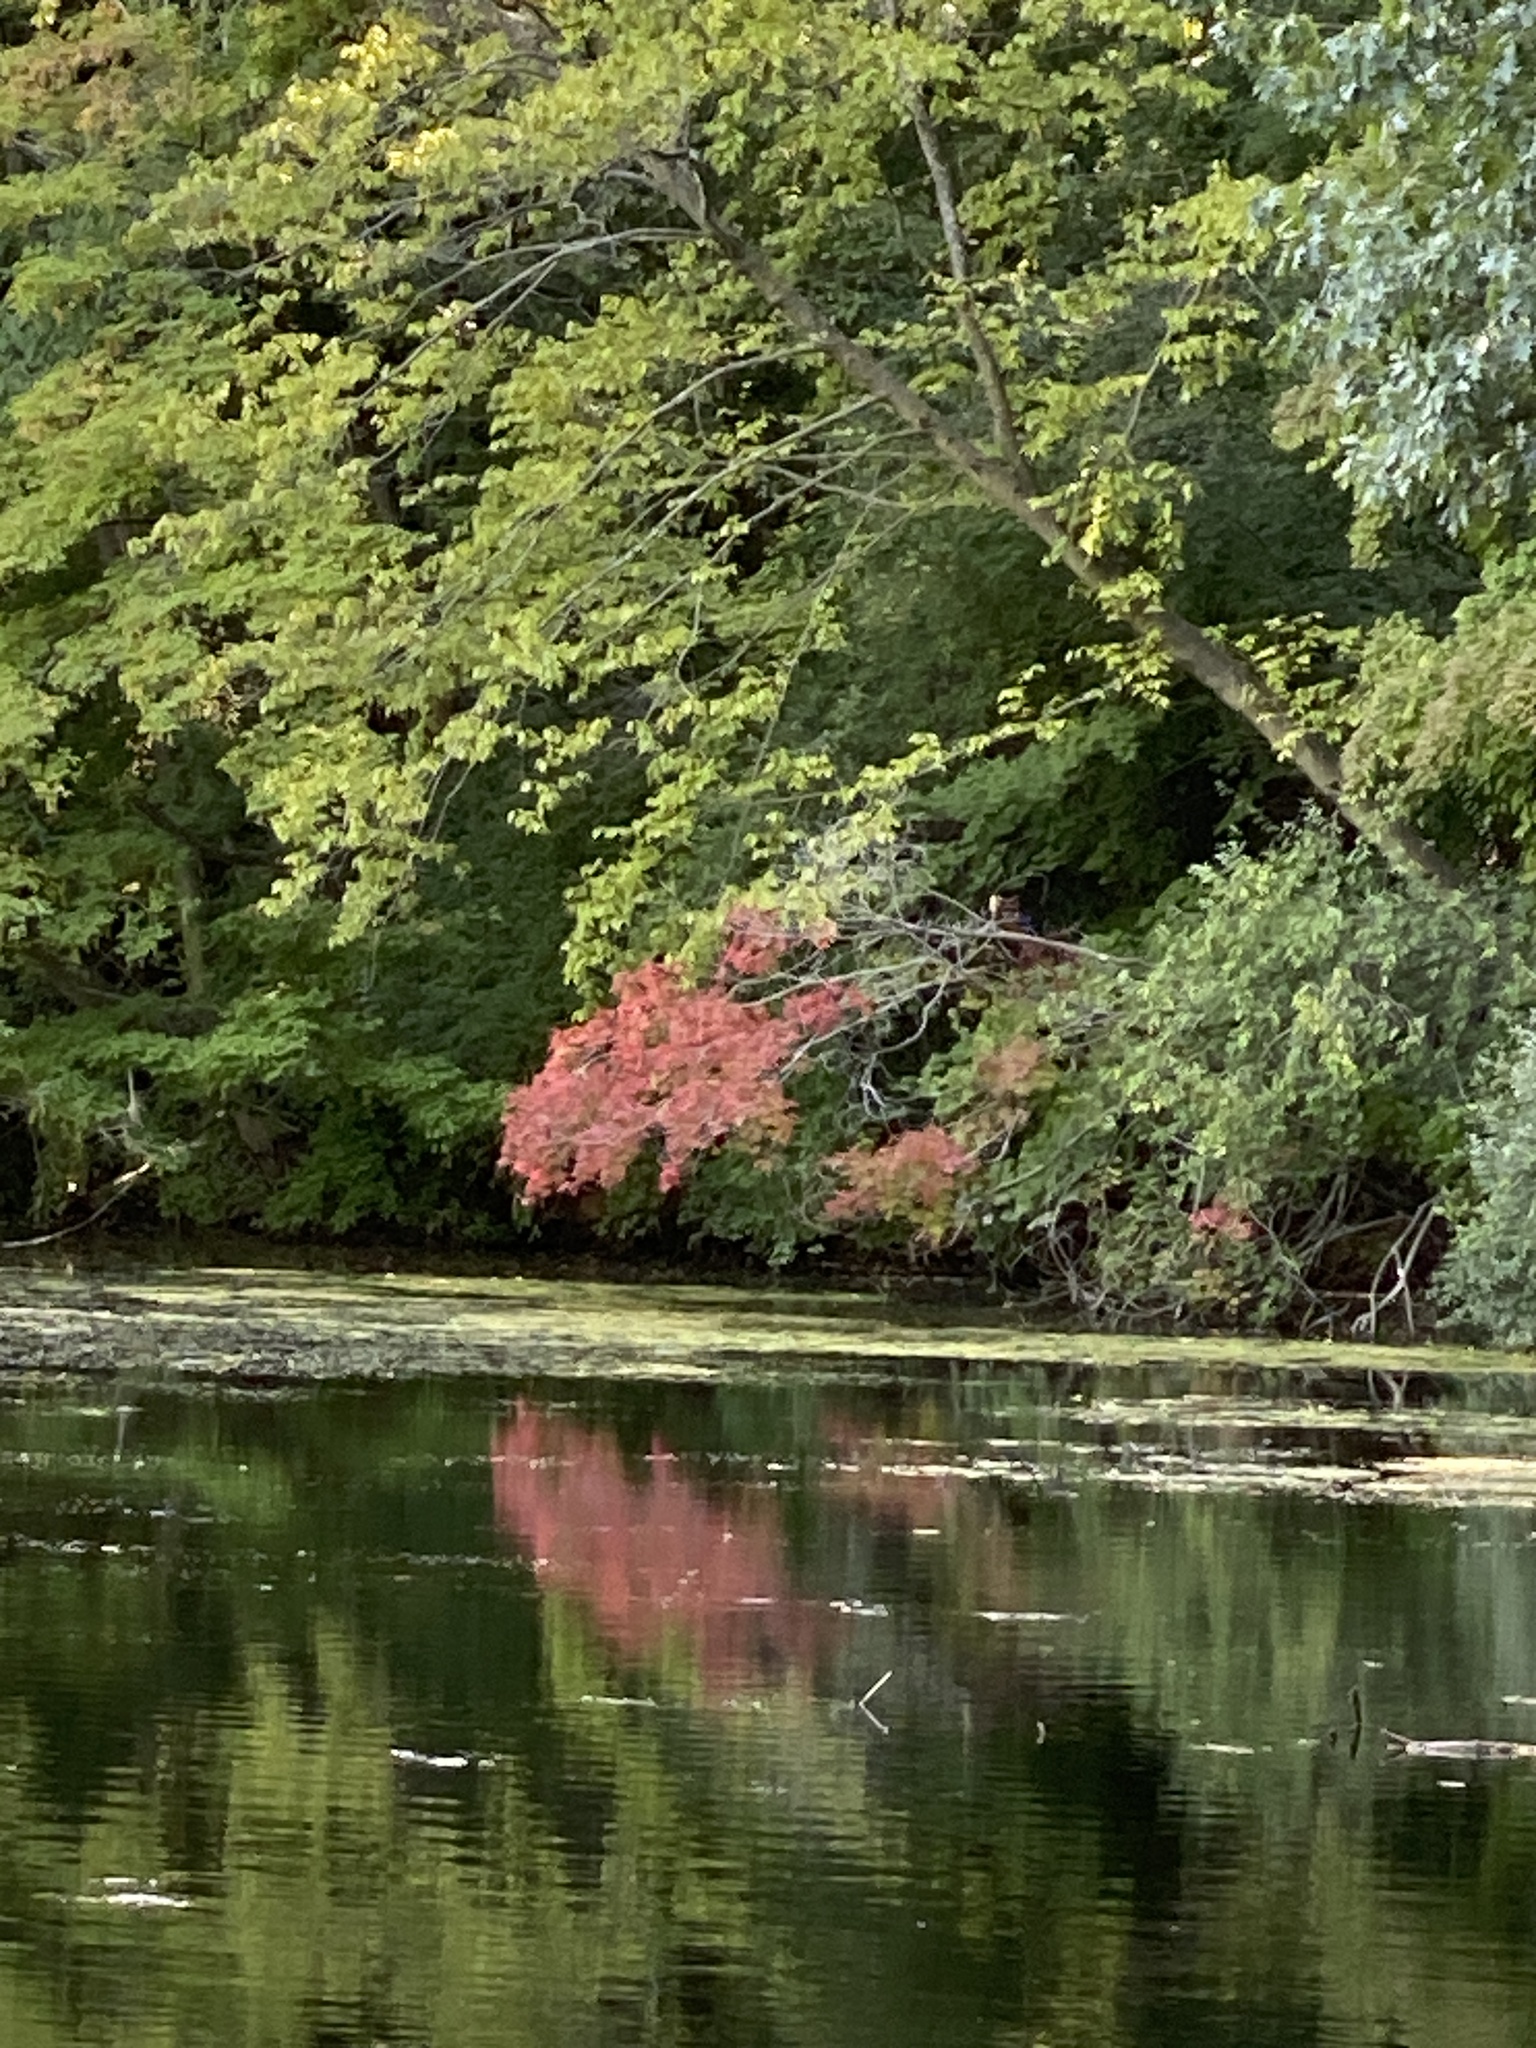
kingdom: Plantae
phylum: Tracheophyta
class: Magnoliopsida
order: Sapindales
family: Sapindaceae
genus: Acer
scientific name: Acer rubrum
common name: Red maple
